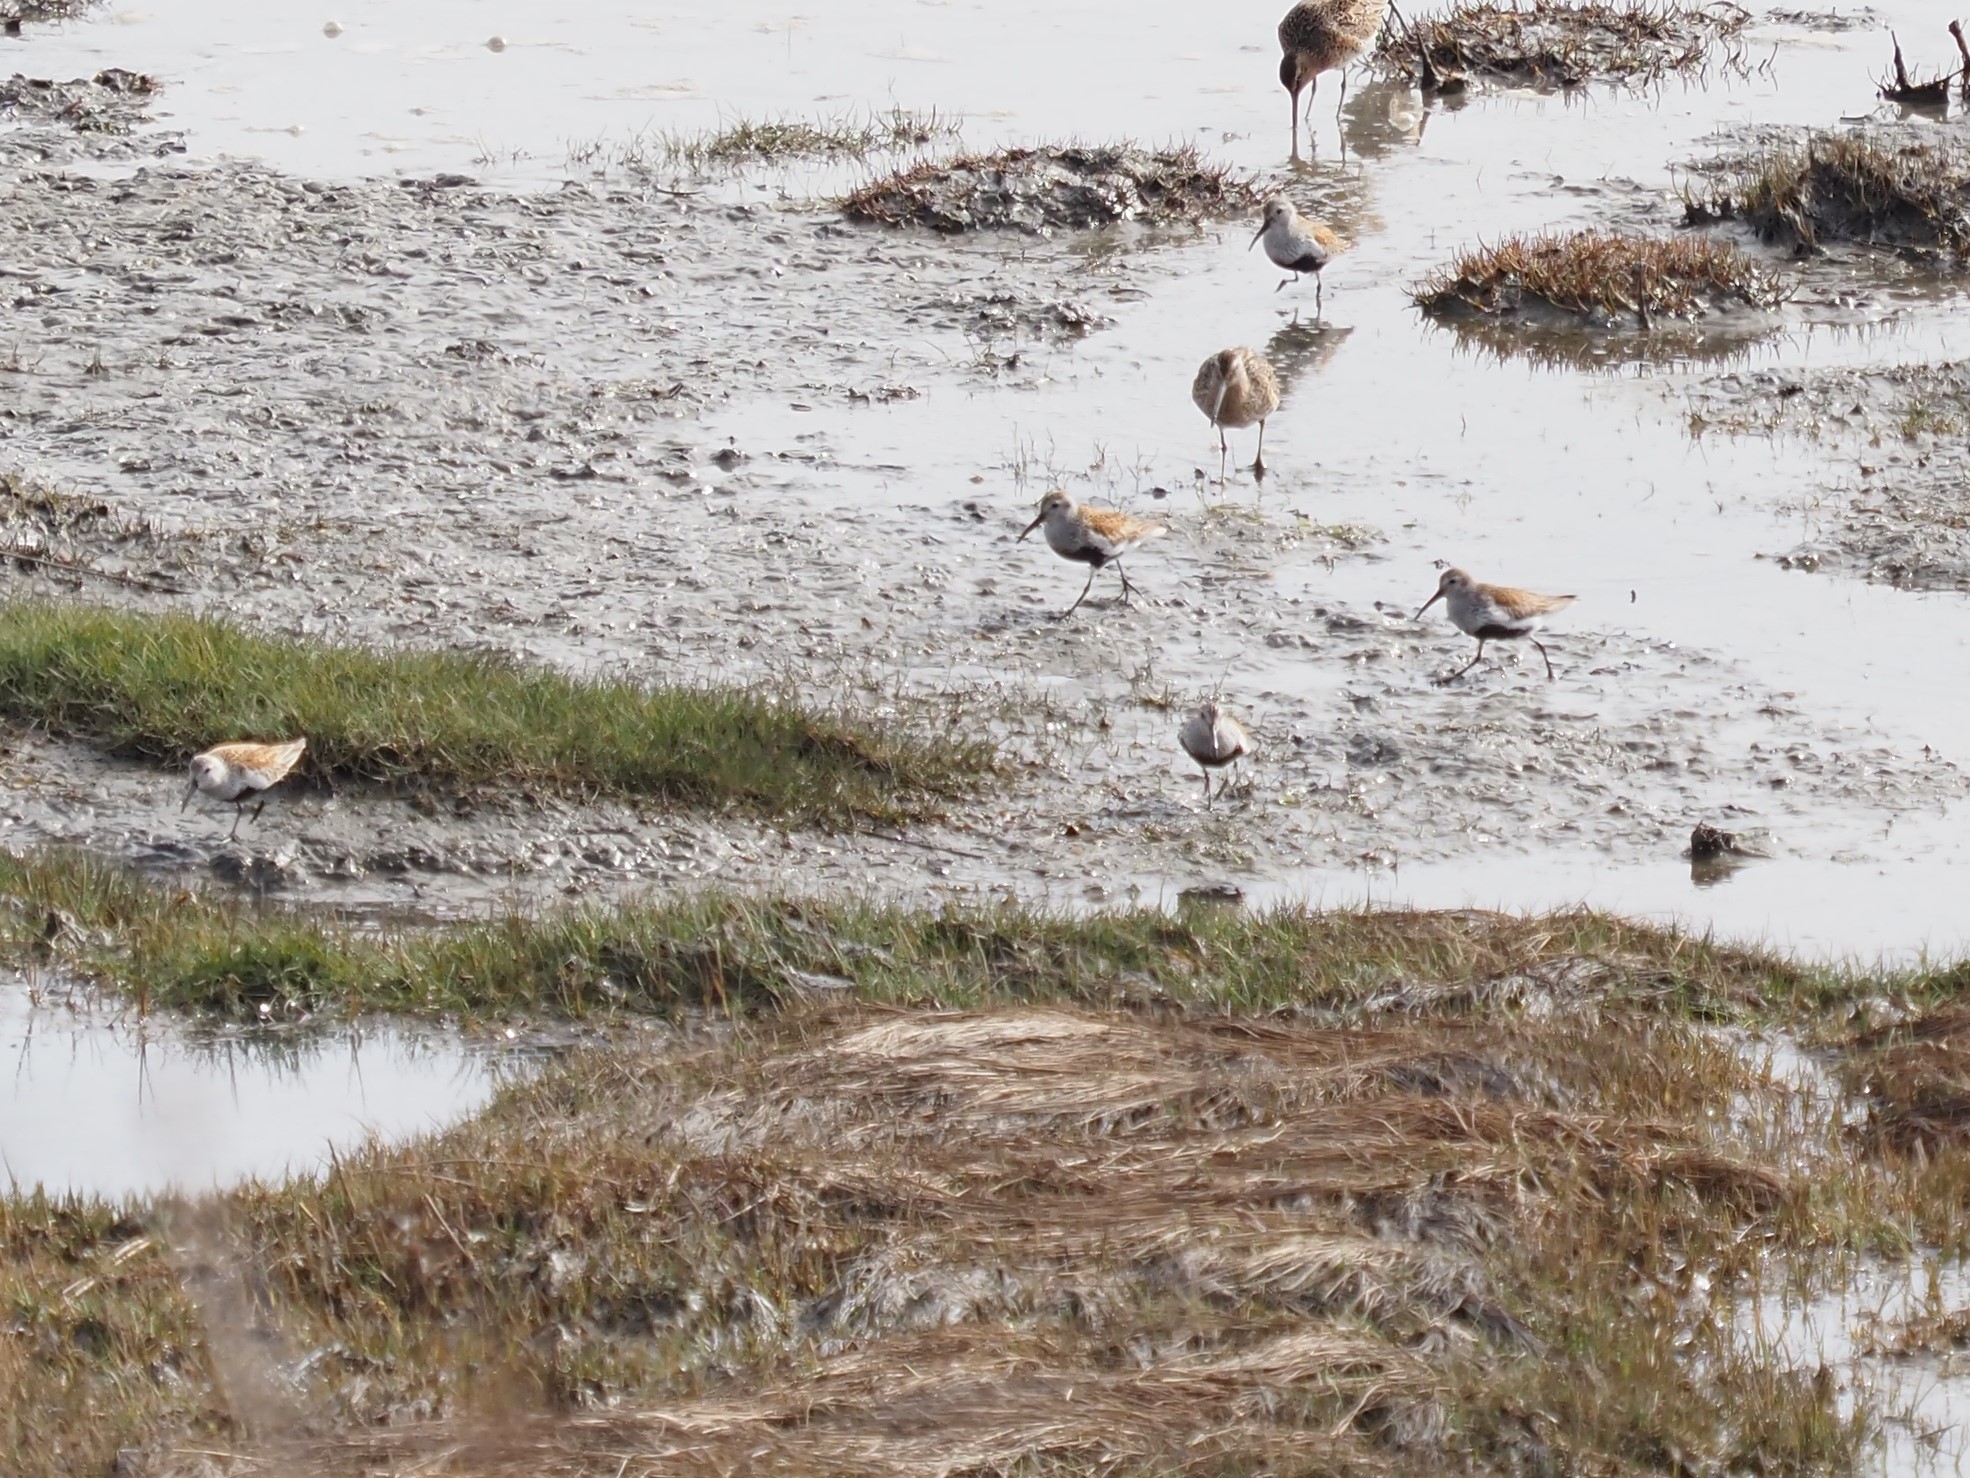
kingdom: Animalia
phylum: Chordata
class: Aves
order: Charadriiformes
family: Scolopacidae
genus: Calidris
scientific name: Calidris alpina
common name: Dunlin
